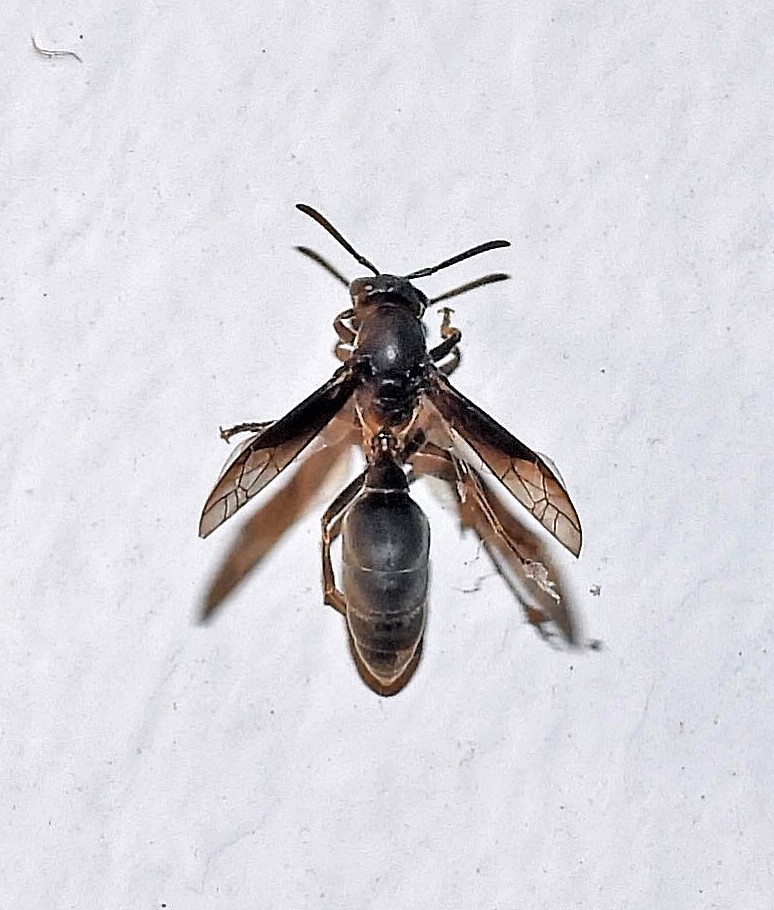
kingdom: Animalia
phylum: Arthropoda
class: Insecta
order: Hymenoptera
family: Eumenidae
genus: Polybia
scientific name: Polybia ignobilis
